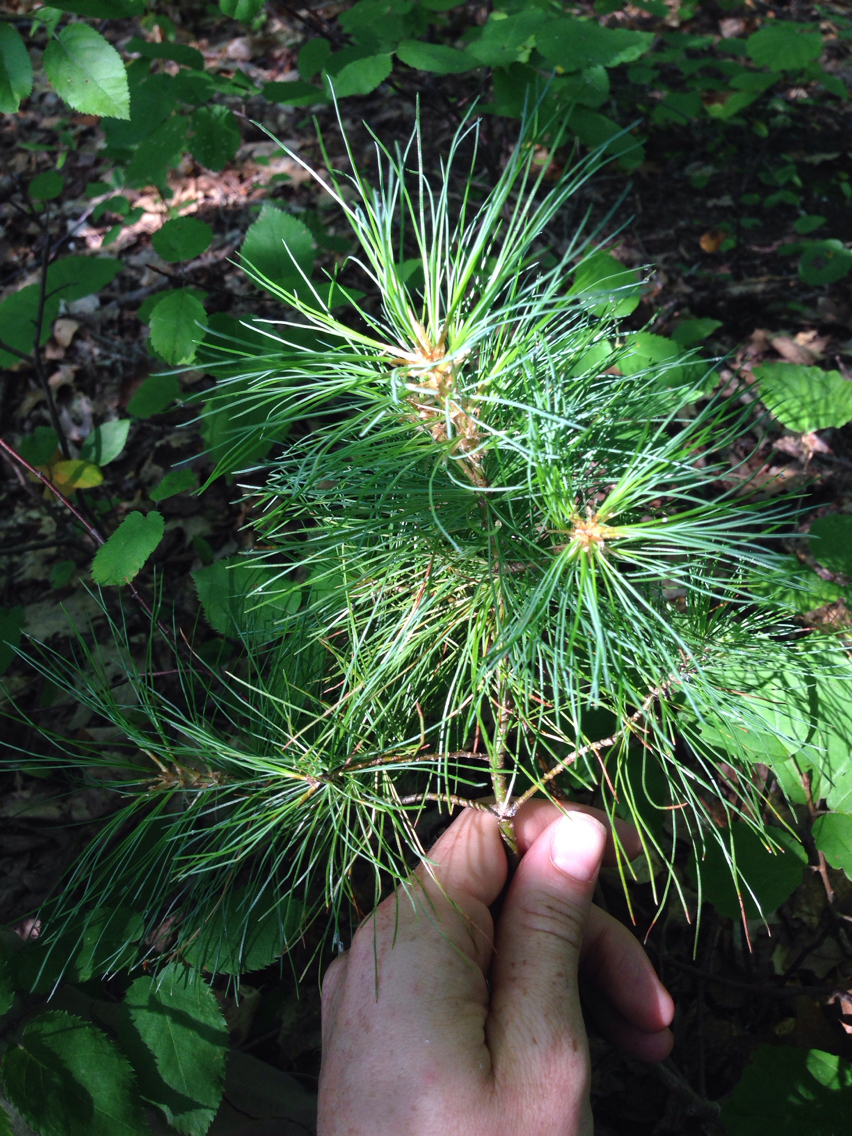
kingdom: Plantae
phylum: Tracheophyta
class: Pinopsida
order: Pinales
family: Pinaceae
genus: Pinus
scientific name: Pinus strobus
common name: Weymouth pine
